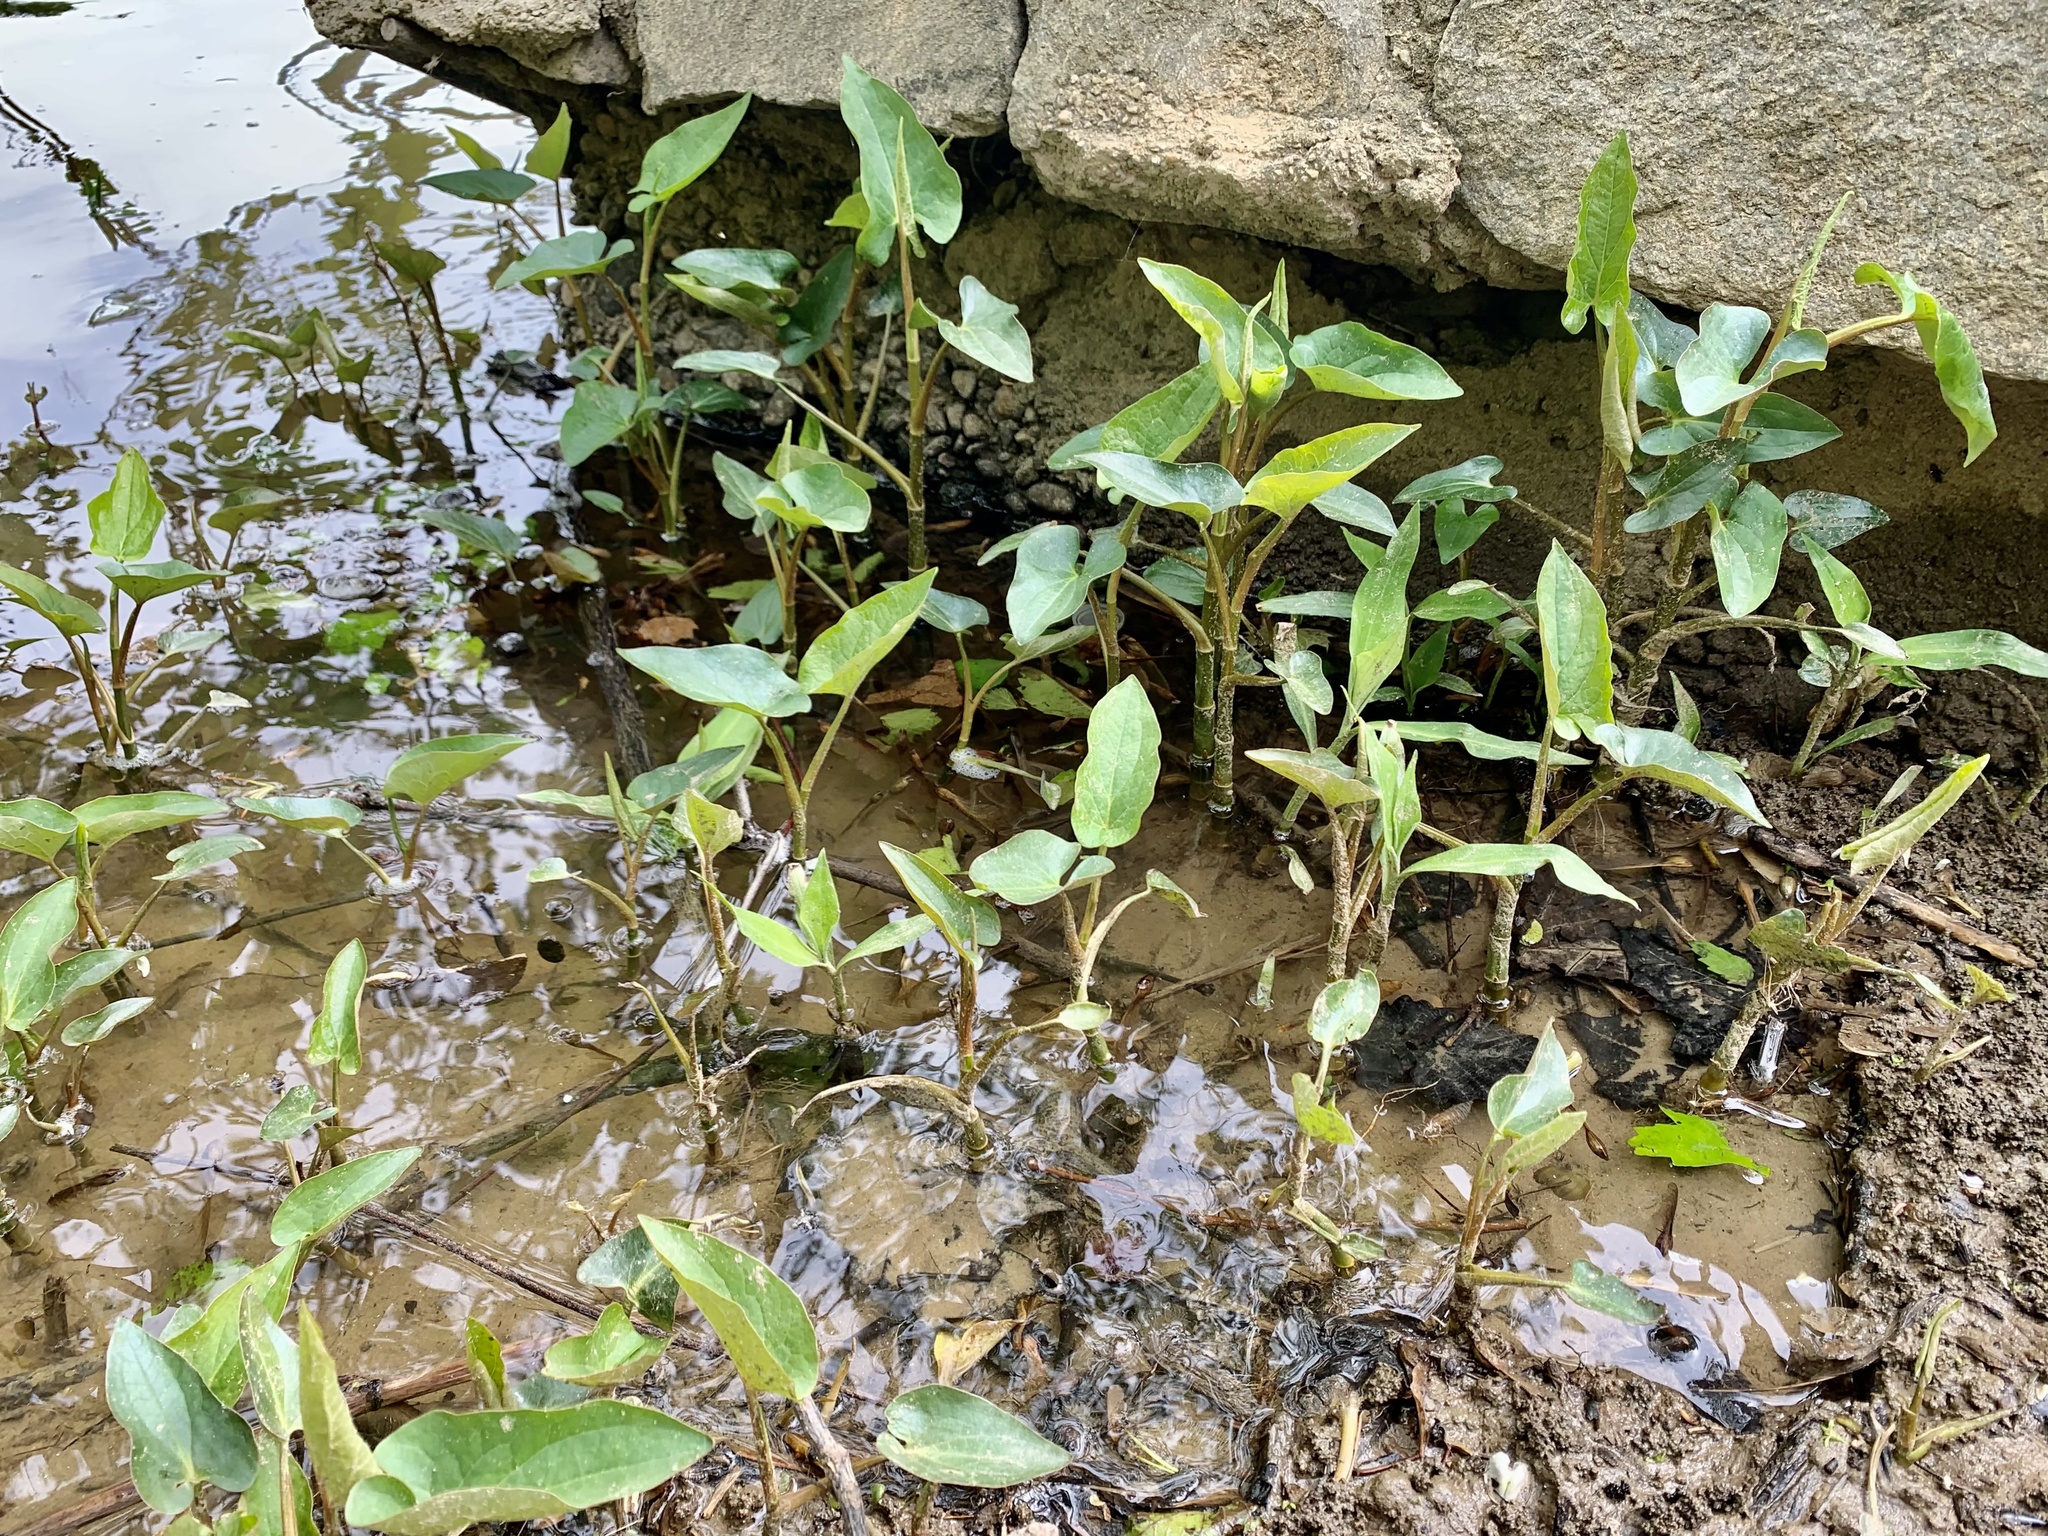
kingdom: Plantae
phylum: Tracheophyta
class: Magnoliopsida
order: Piperales
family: Saururaceae
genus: Saururus
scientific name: Saururus cernuus
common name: Lizard's-tail
